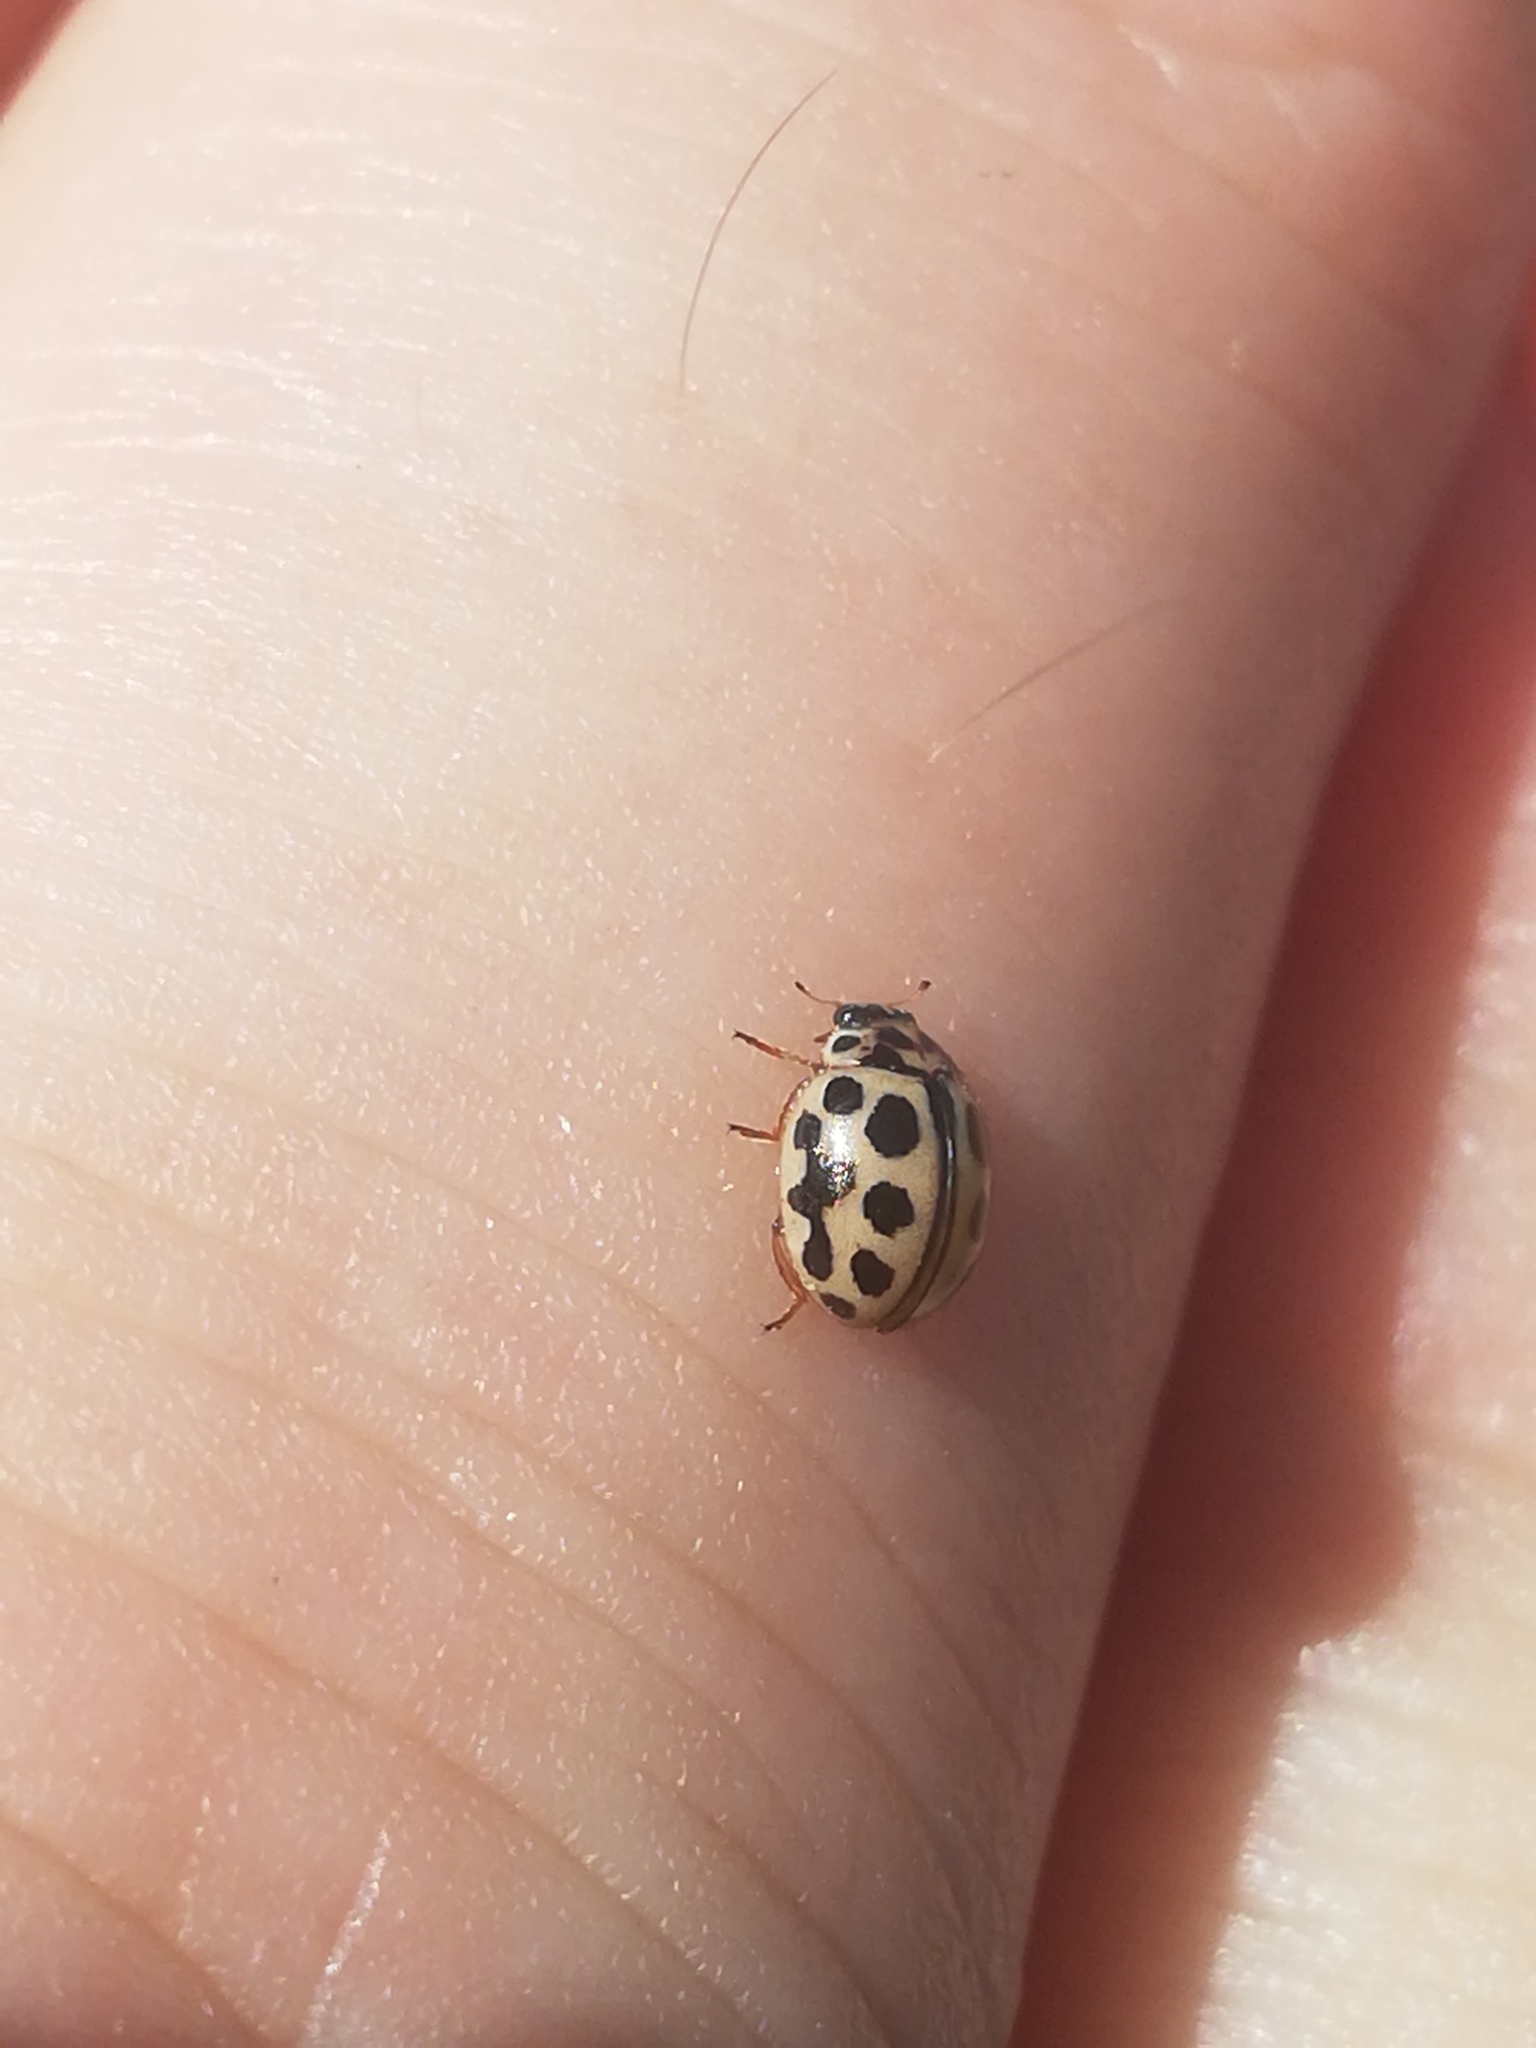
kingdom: Animalia
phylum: Arthropoda
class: Insecta
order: Coleoptera
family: Coccinellidae
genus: Tytthaspis
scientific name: Tytthaspis sedecimpunctata
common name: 16-spot ladybird
